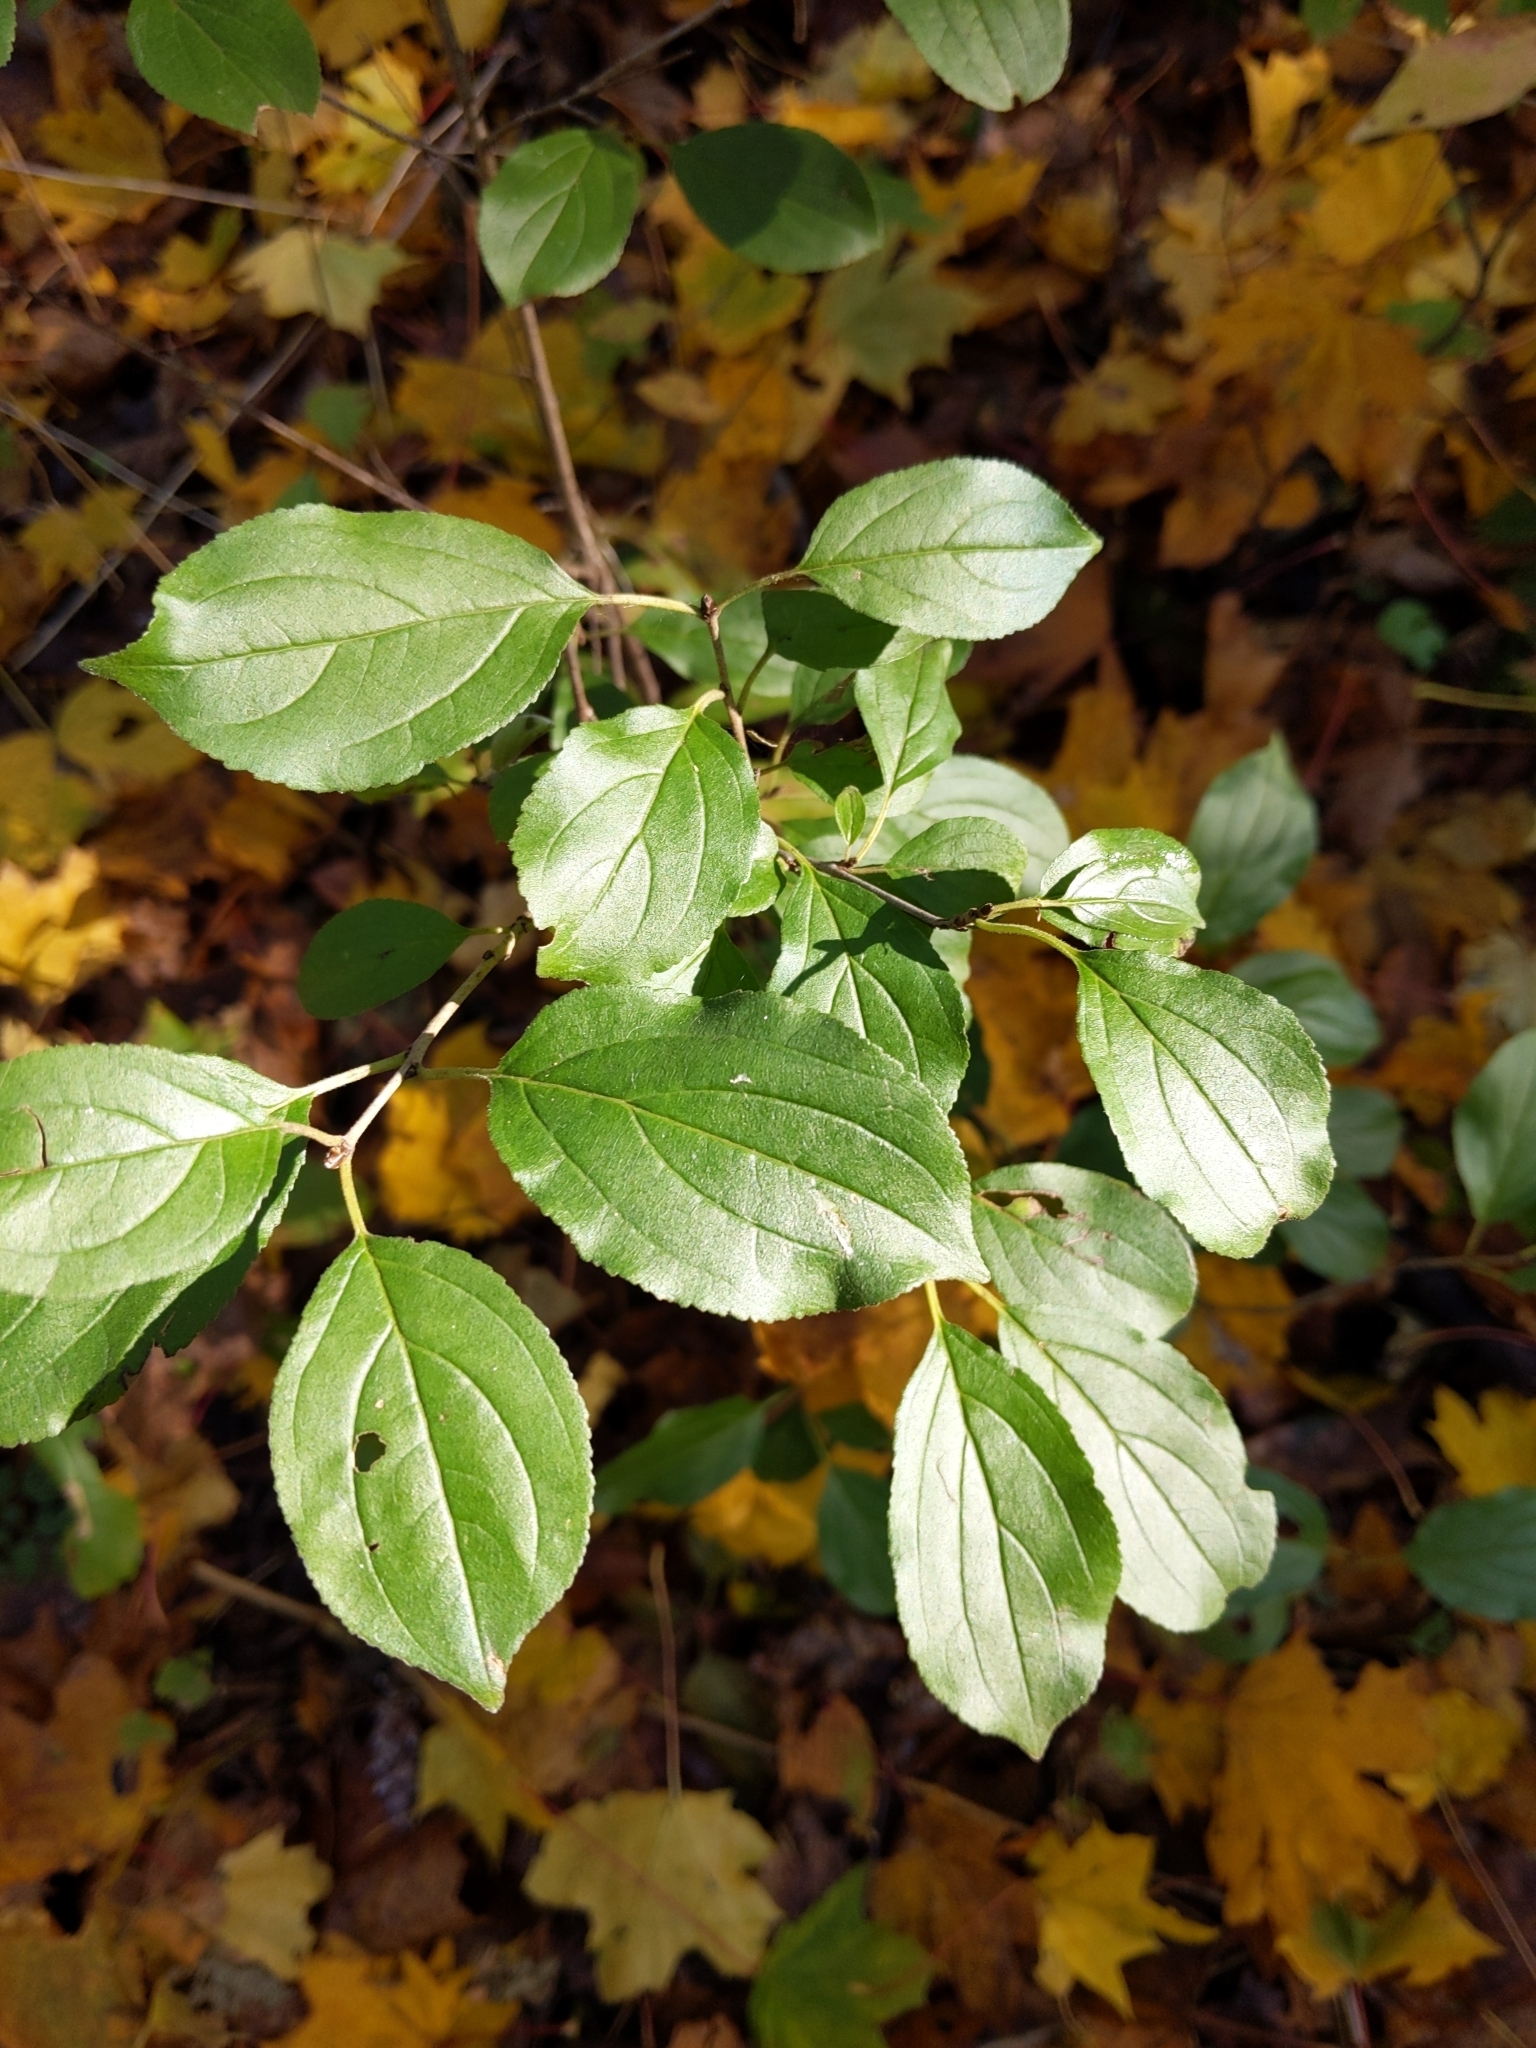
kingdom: Plantae
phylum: Tracheophyta
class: Magnoliopsida
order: Rosales
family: Rhamnaceae
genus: Rhamnus
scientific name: Rhamnus cathartica
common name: Common buckthorn
